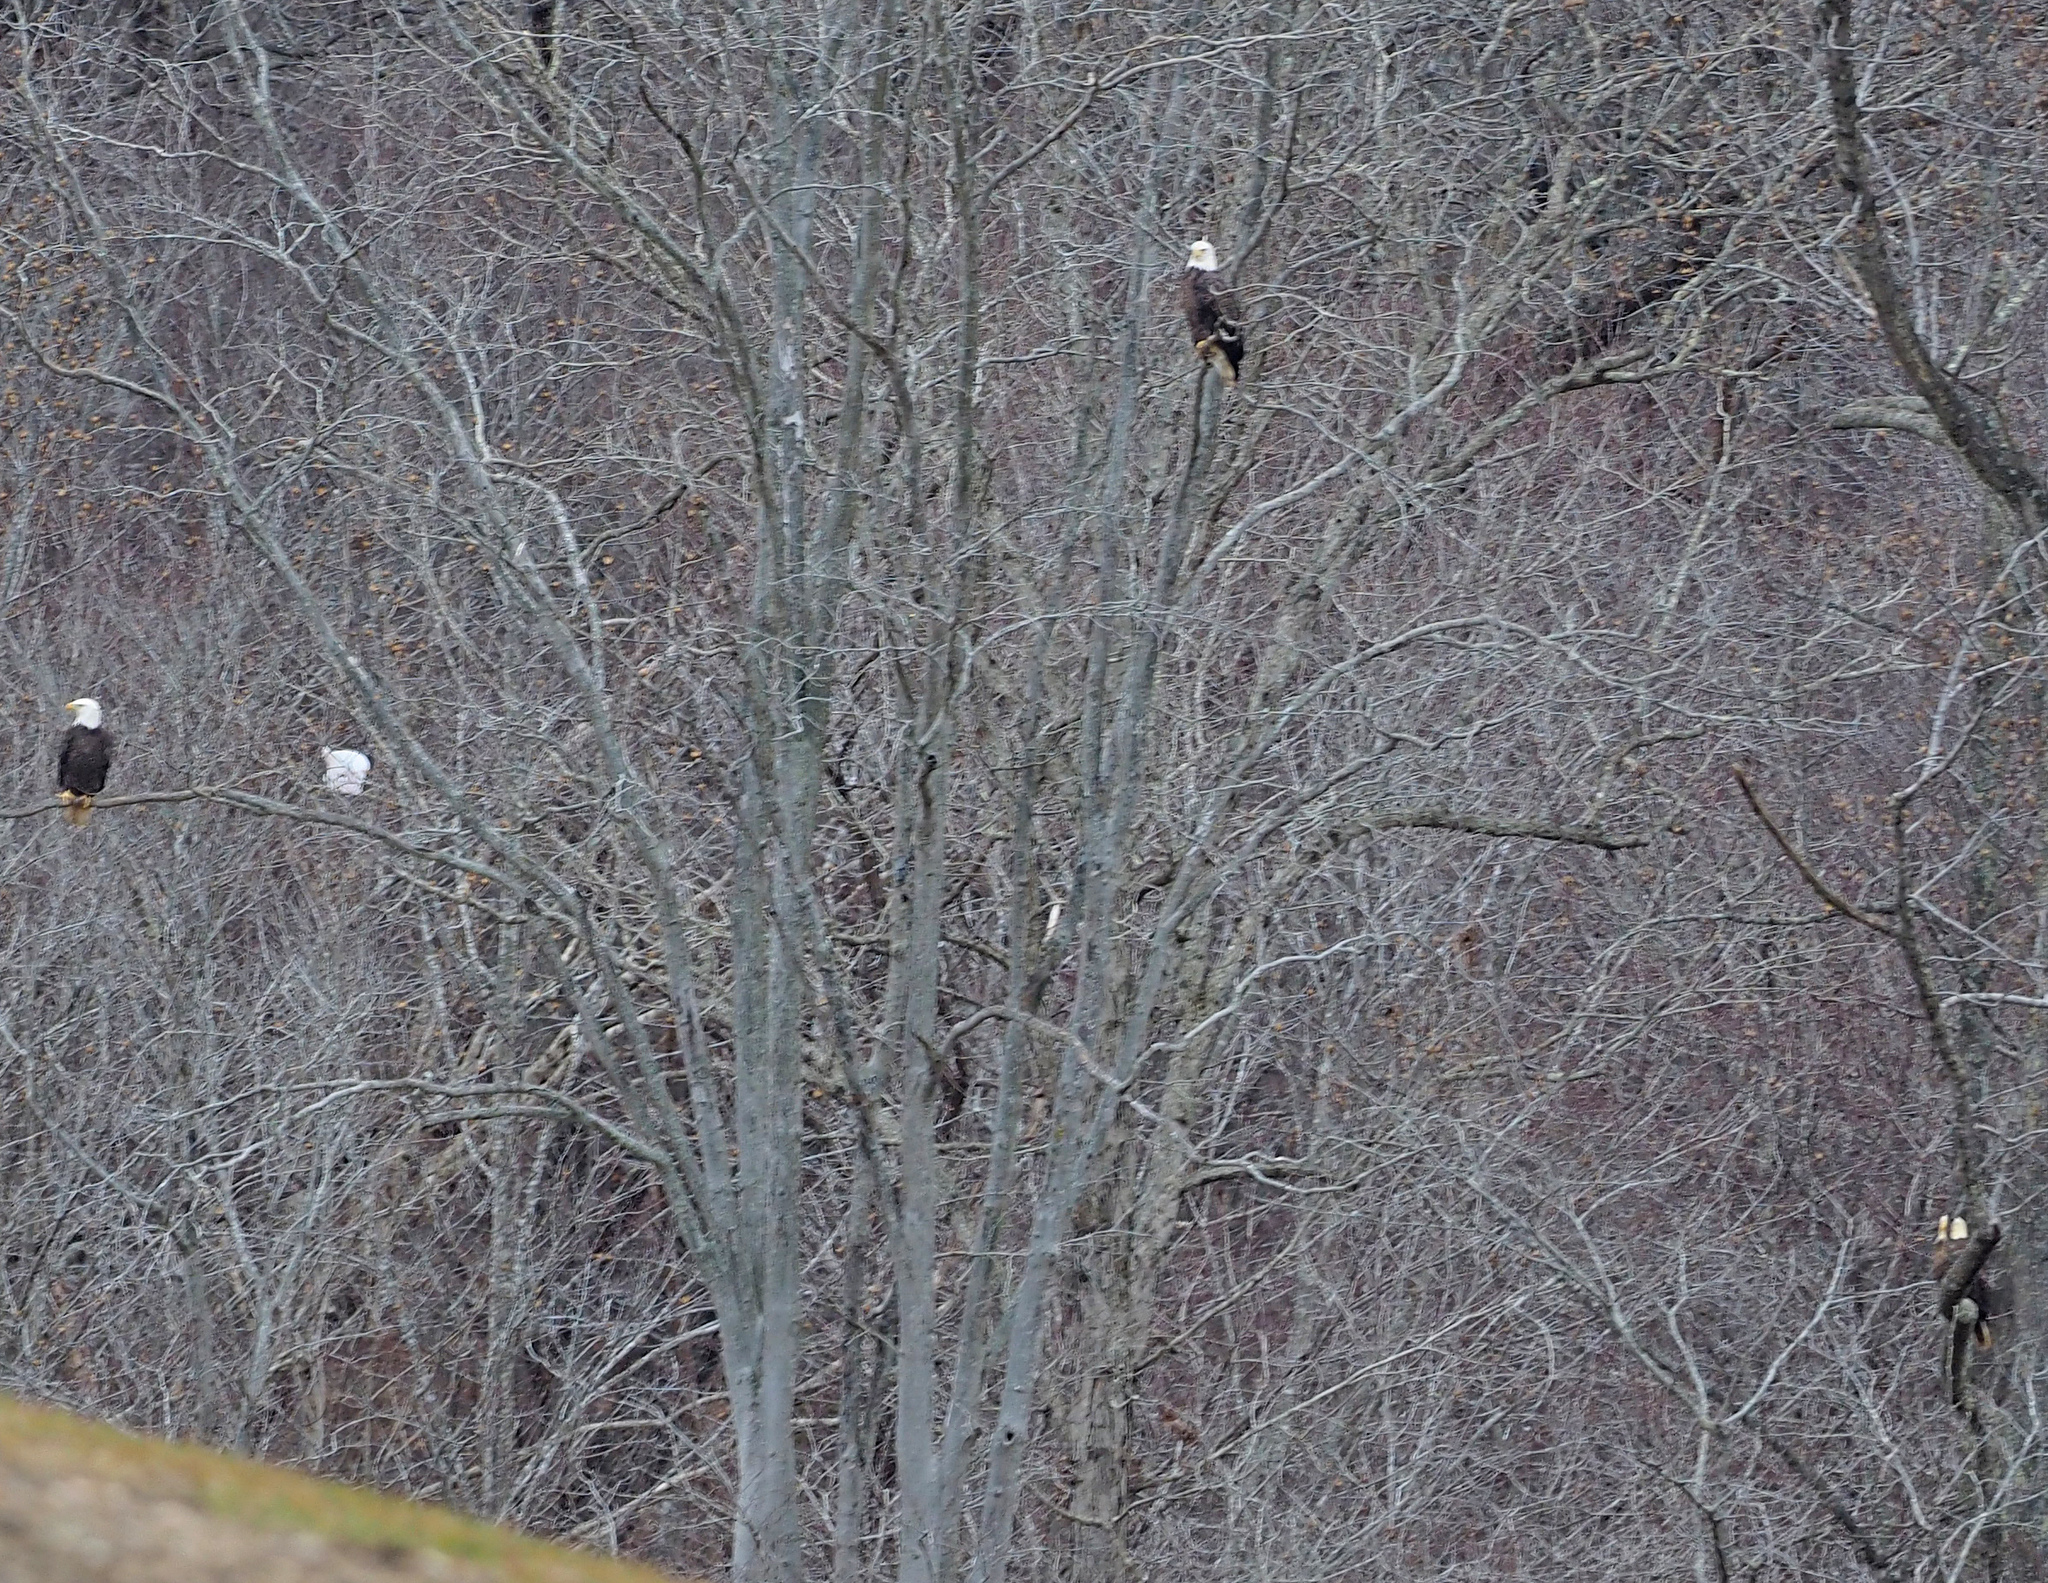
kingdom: Animalia
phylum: Chordata
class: Aves
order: Accipitriformes
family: Accipitridae
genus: Haliaeetus
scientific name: Haliaeetus leucocephalus
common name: Bald eagle
